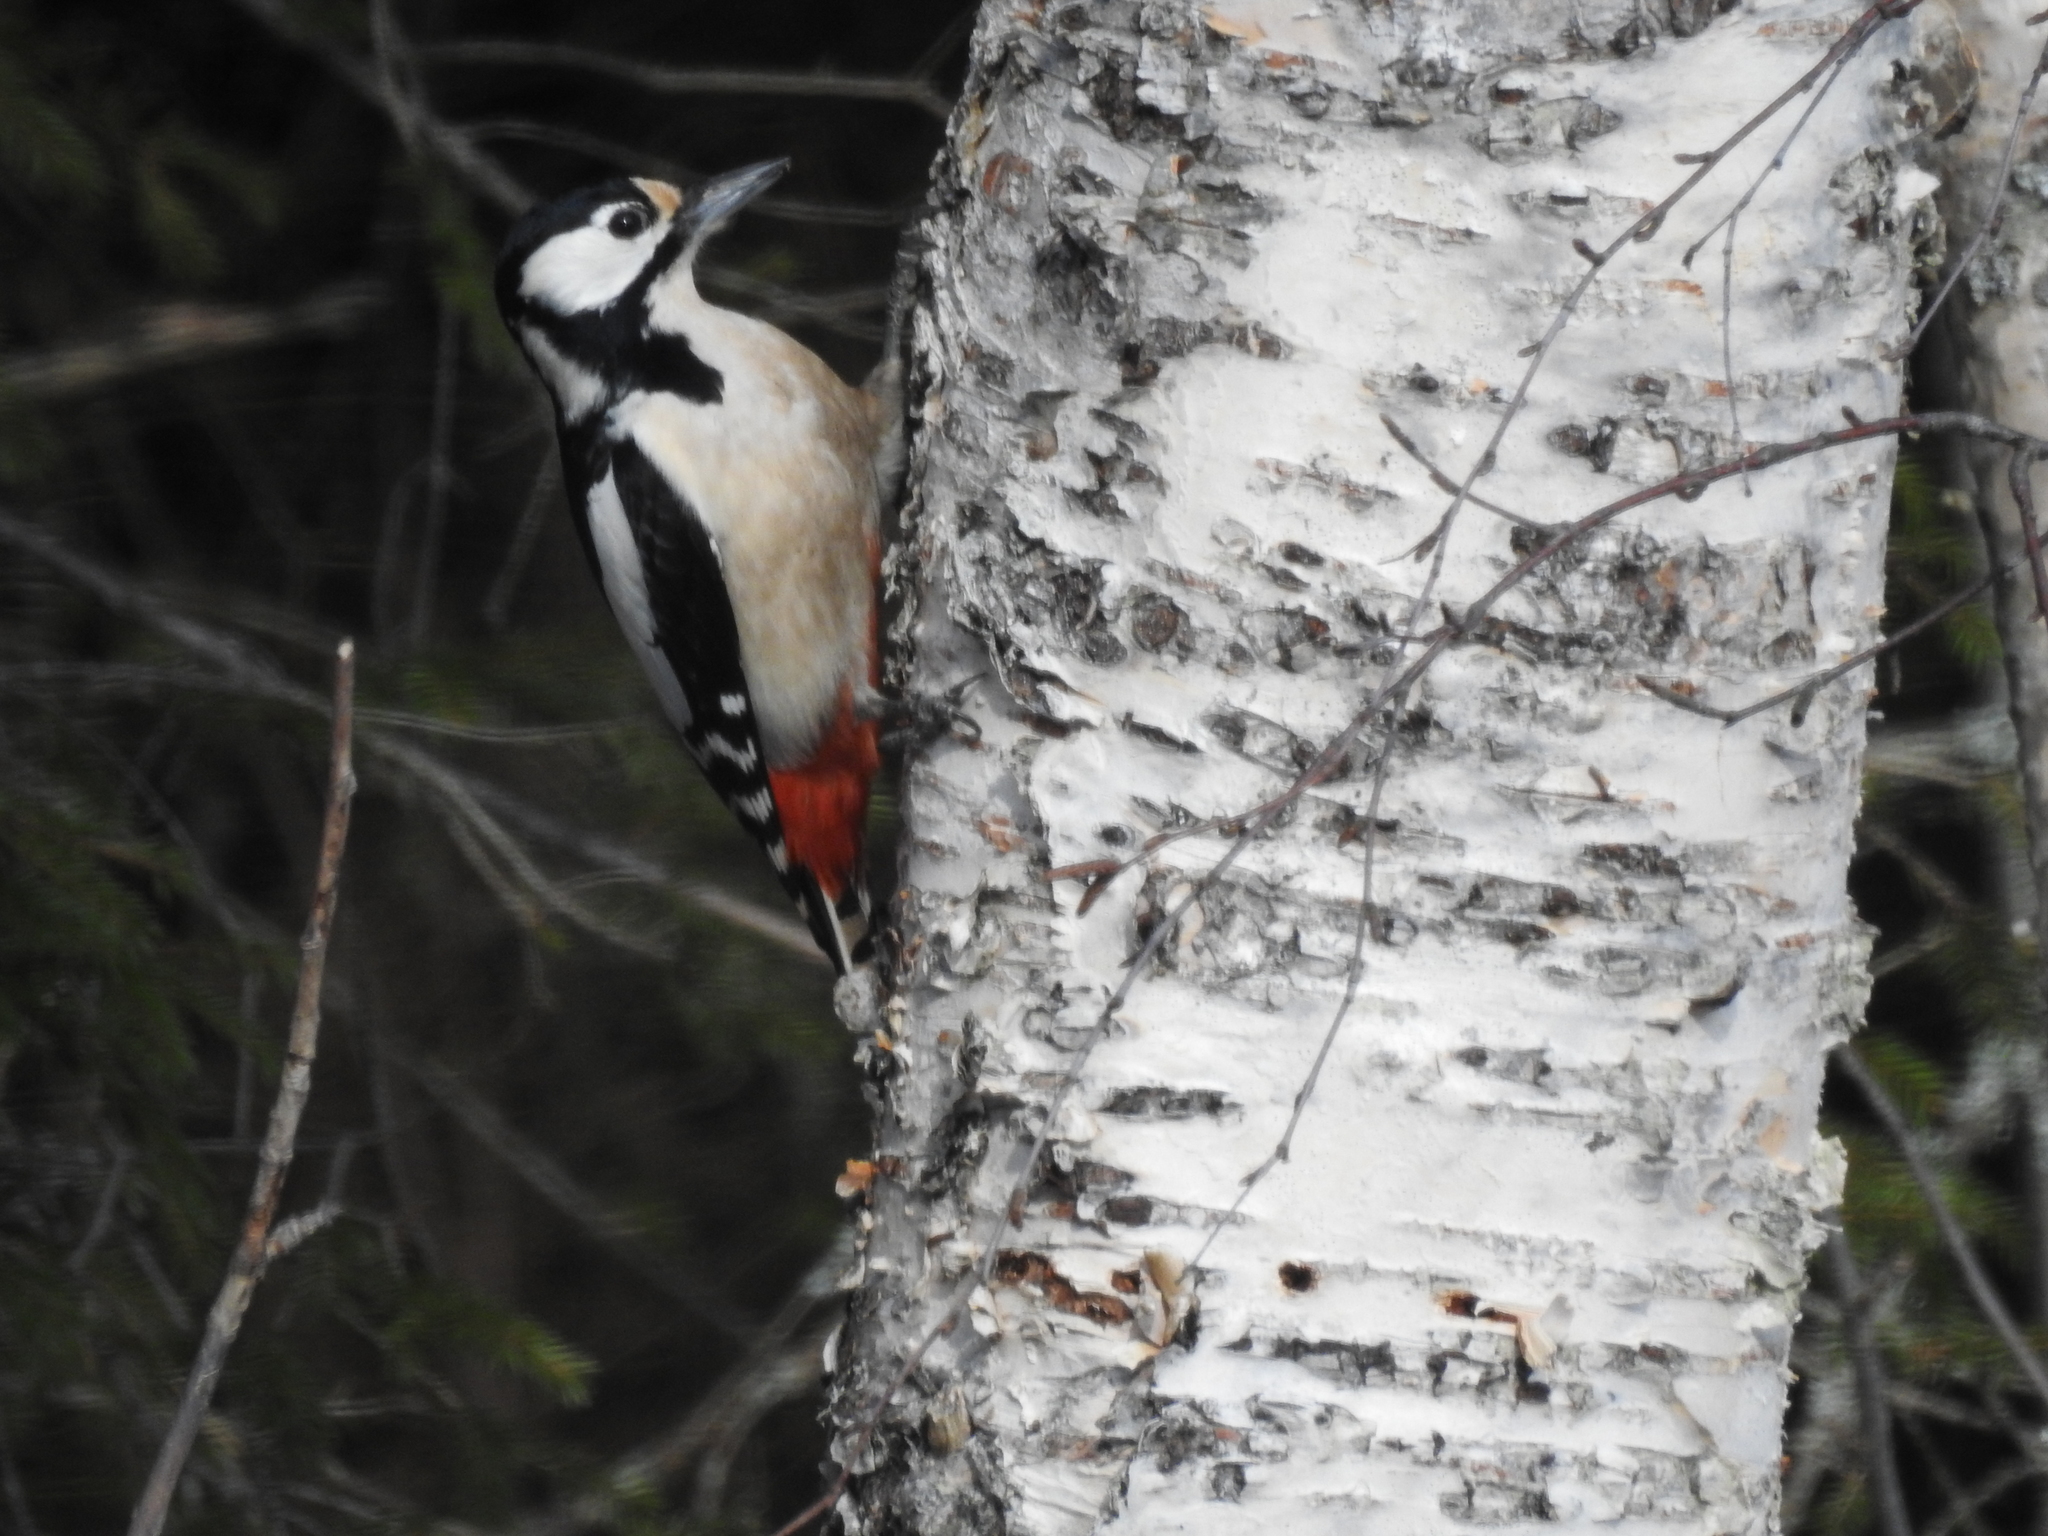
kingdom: Animalia
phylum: Chordata
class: Aves
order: Piciformes
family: Picidae
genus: Dendrocopos
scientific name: Dendrocopos major
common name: Great spotted woodpecker
